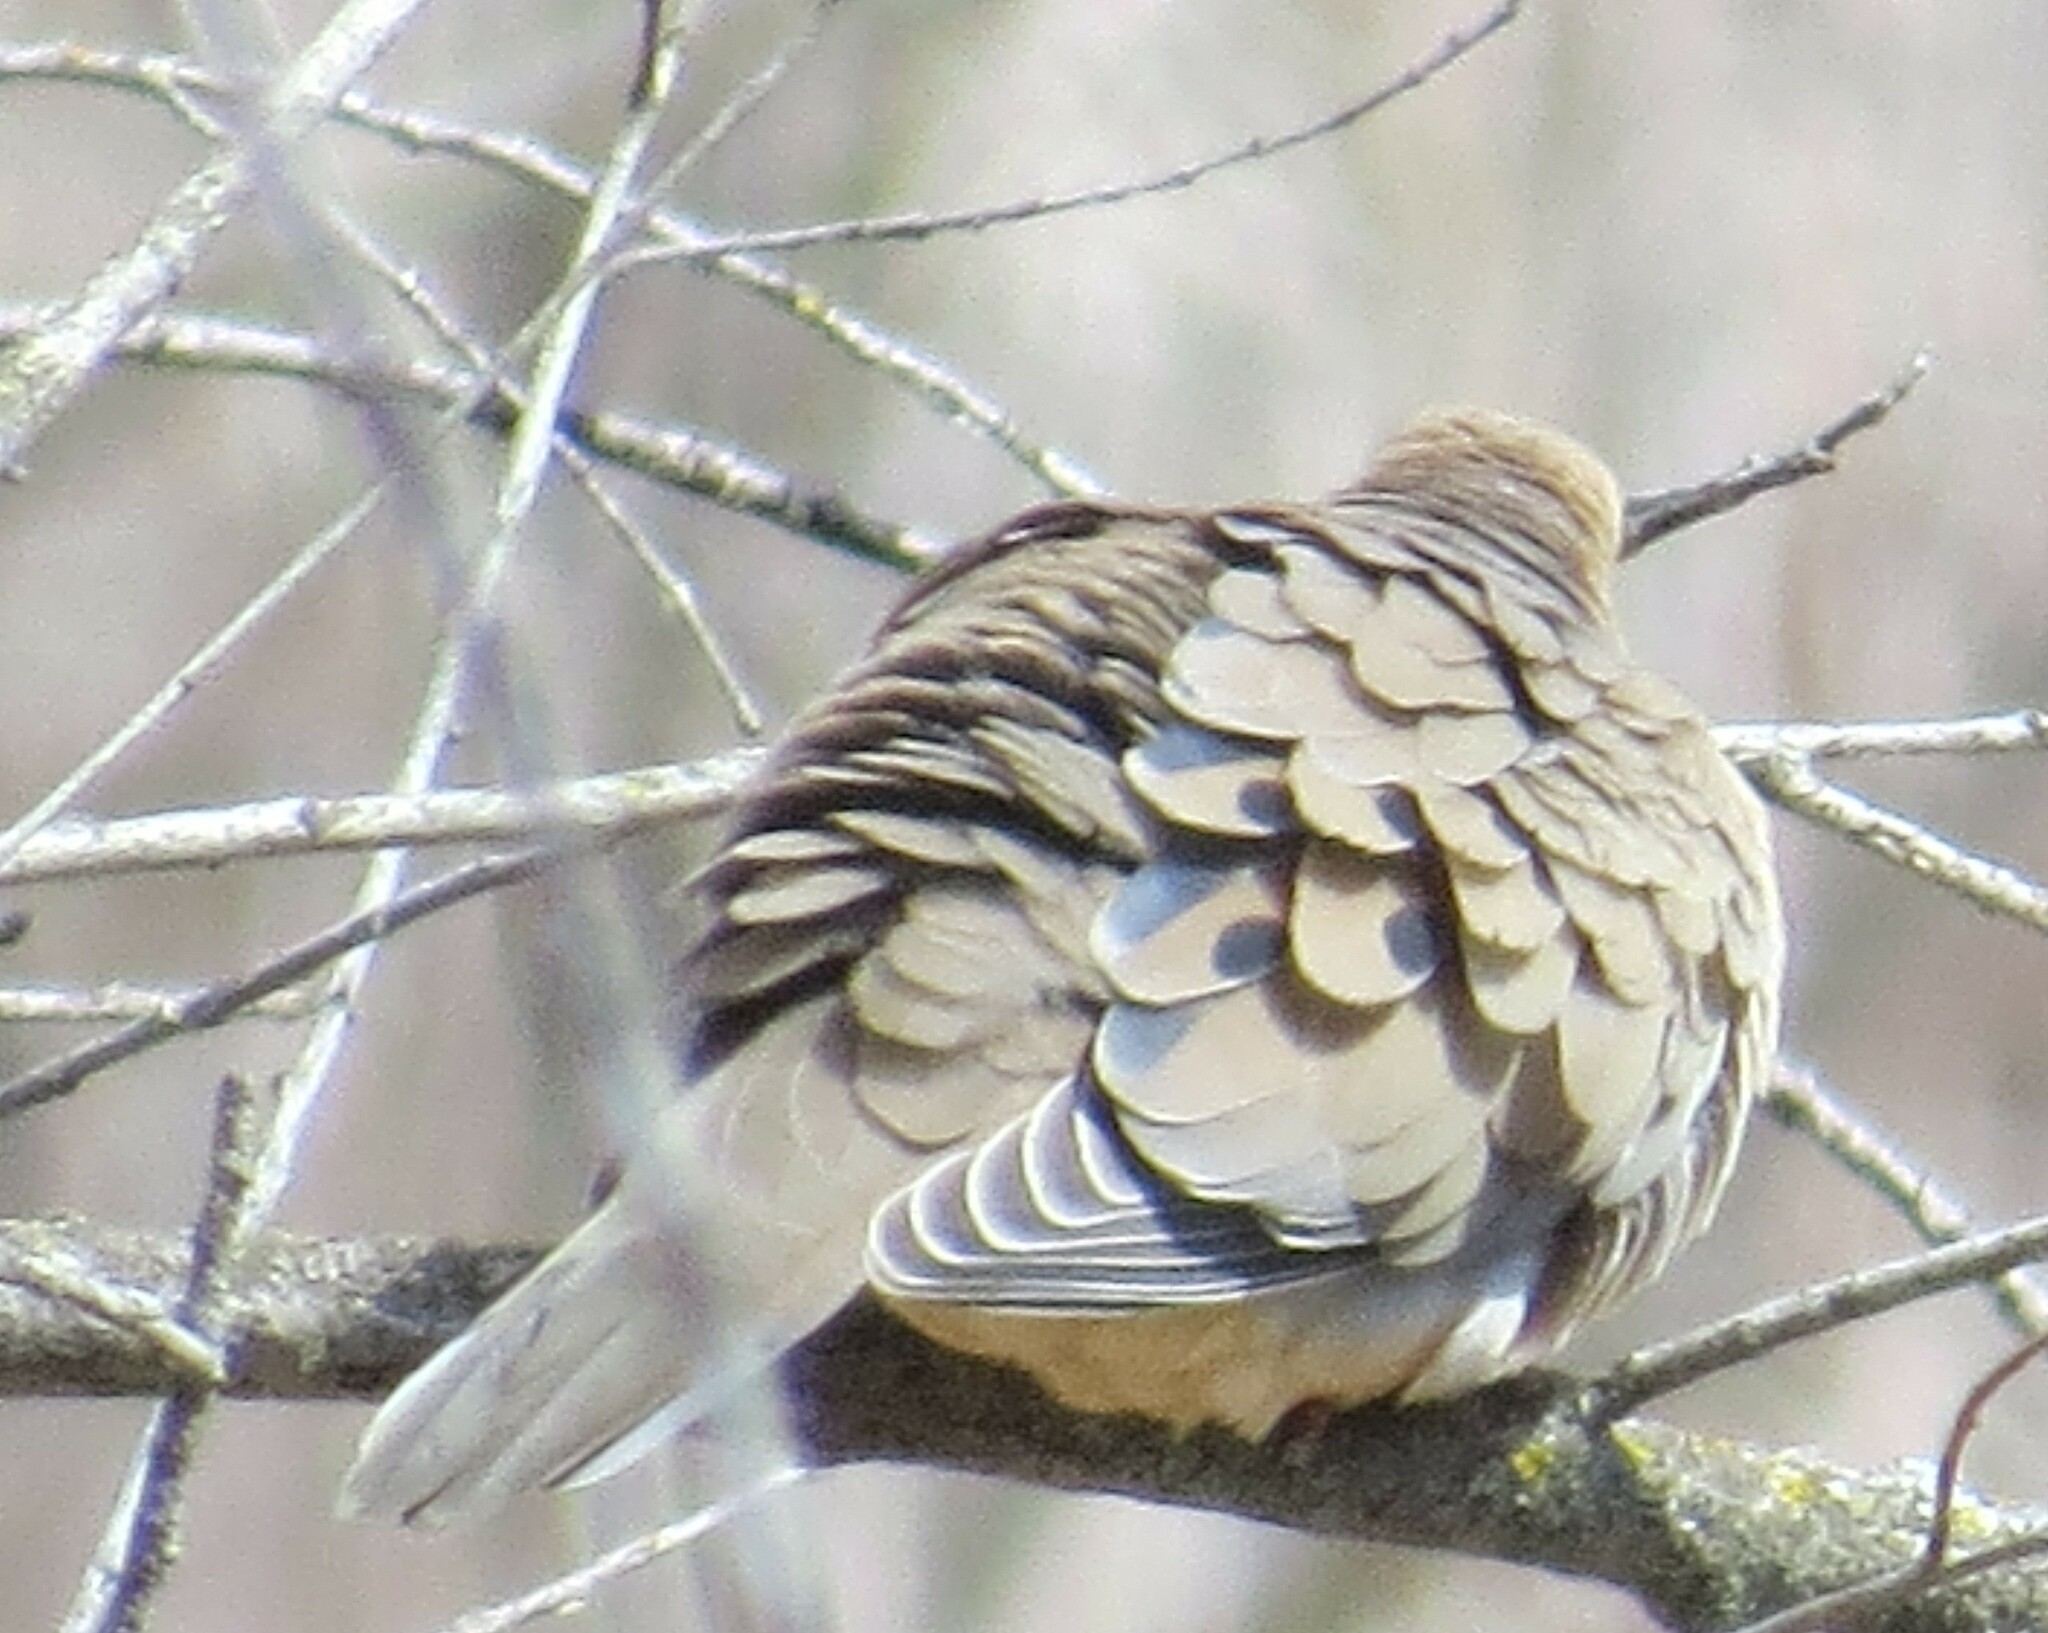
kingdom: Animalia
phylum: Chordata
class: Aves
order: Columbiformes
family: Columbidae
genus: Zenaida
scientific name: Zenaida macroura
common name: Mourning dove
